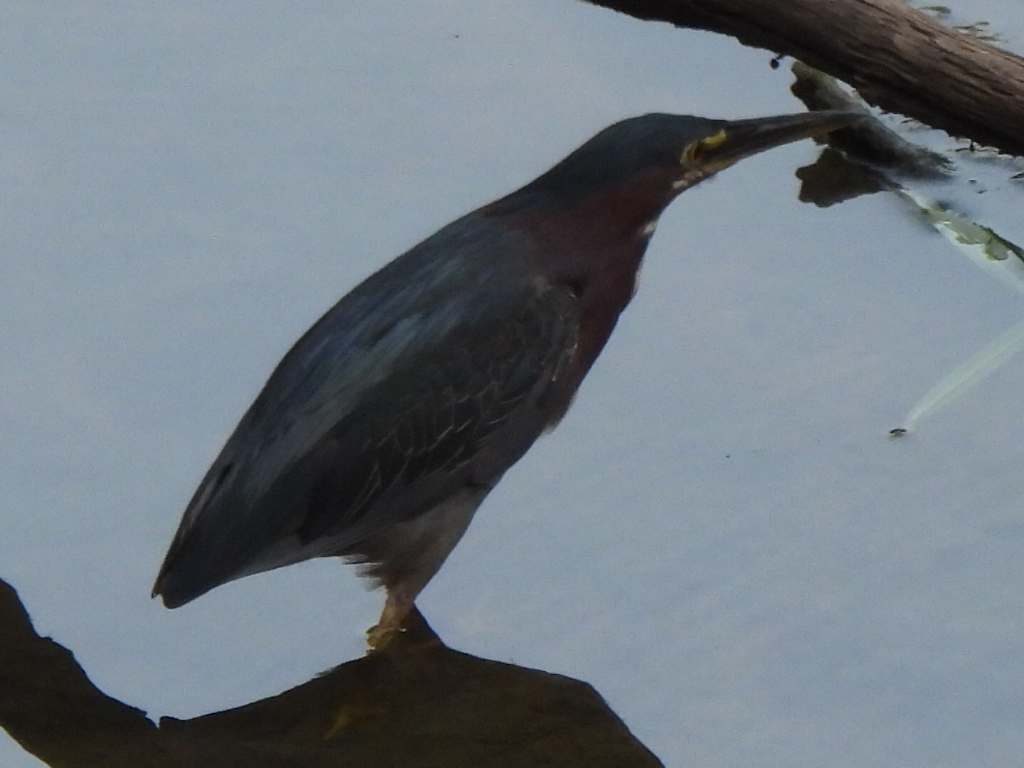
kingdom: Animalia
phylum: Chordata
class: Aves
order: Pelecaniformes
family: Ardeidae
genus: Butorides
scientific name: Butorides virescens
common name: Green heron
